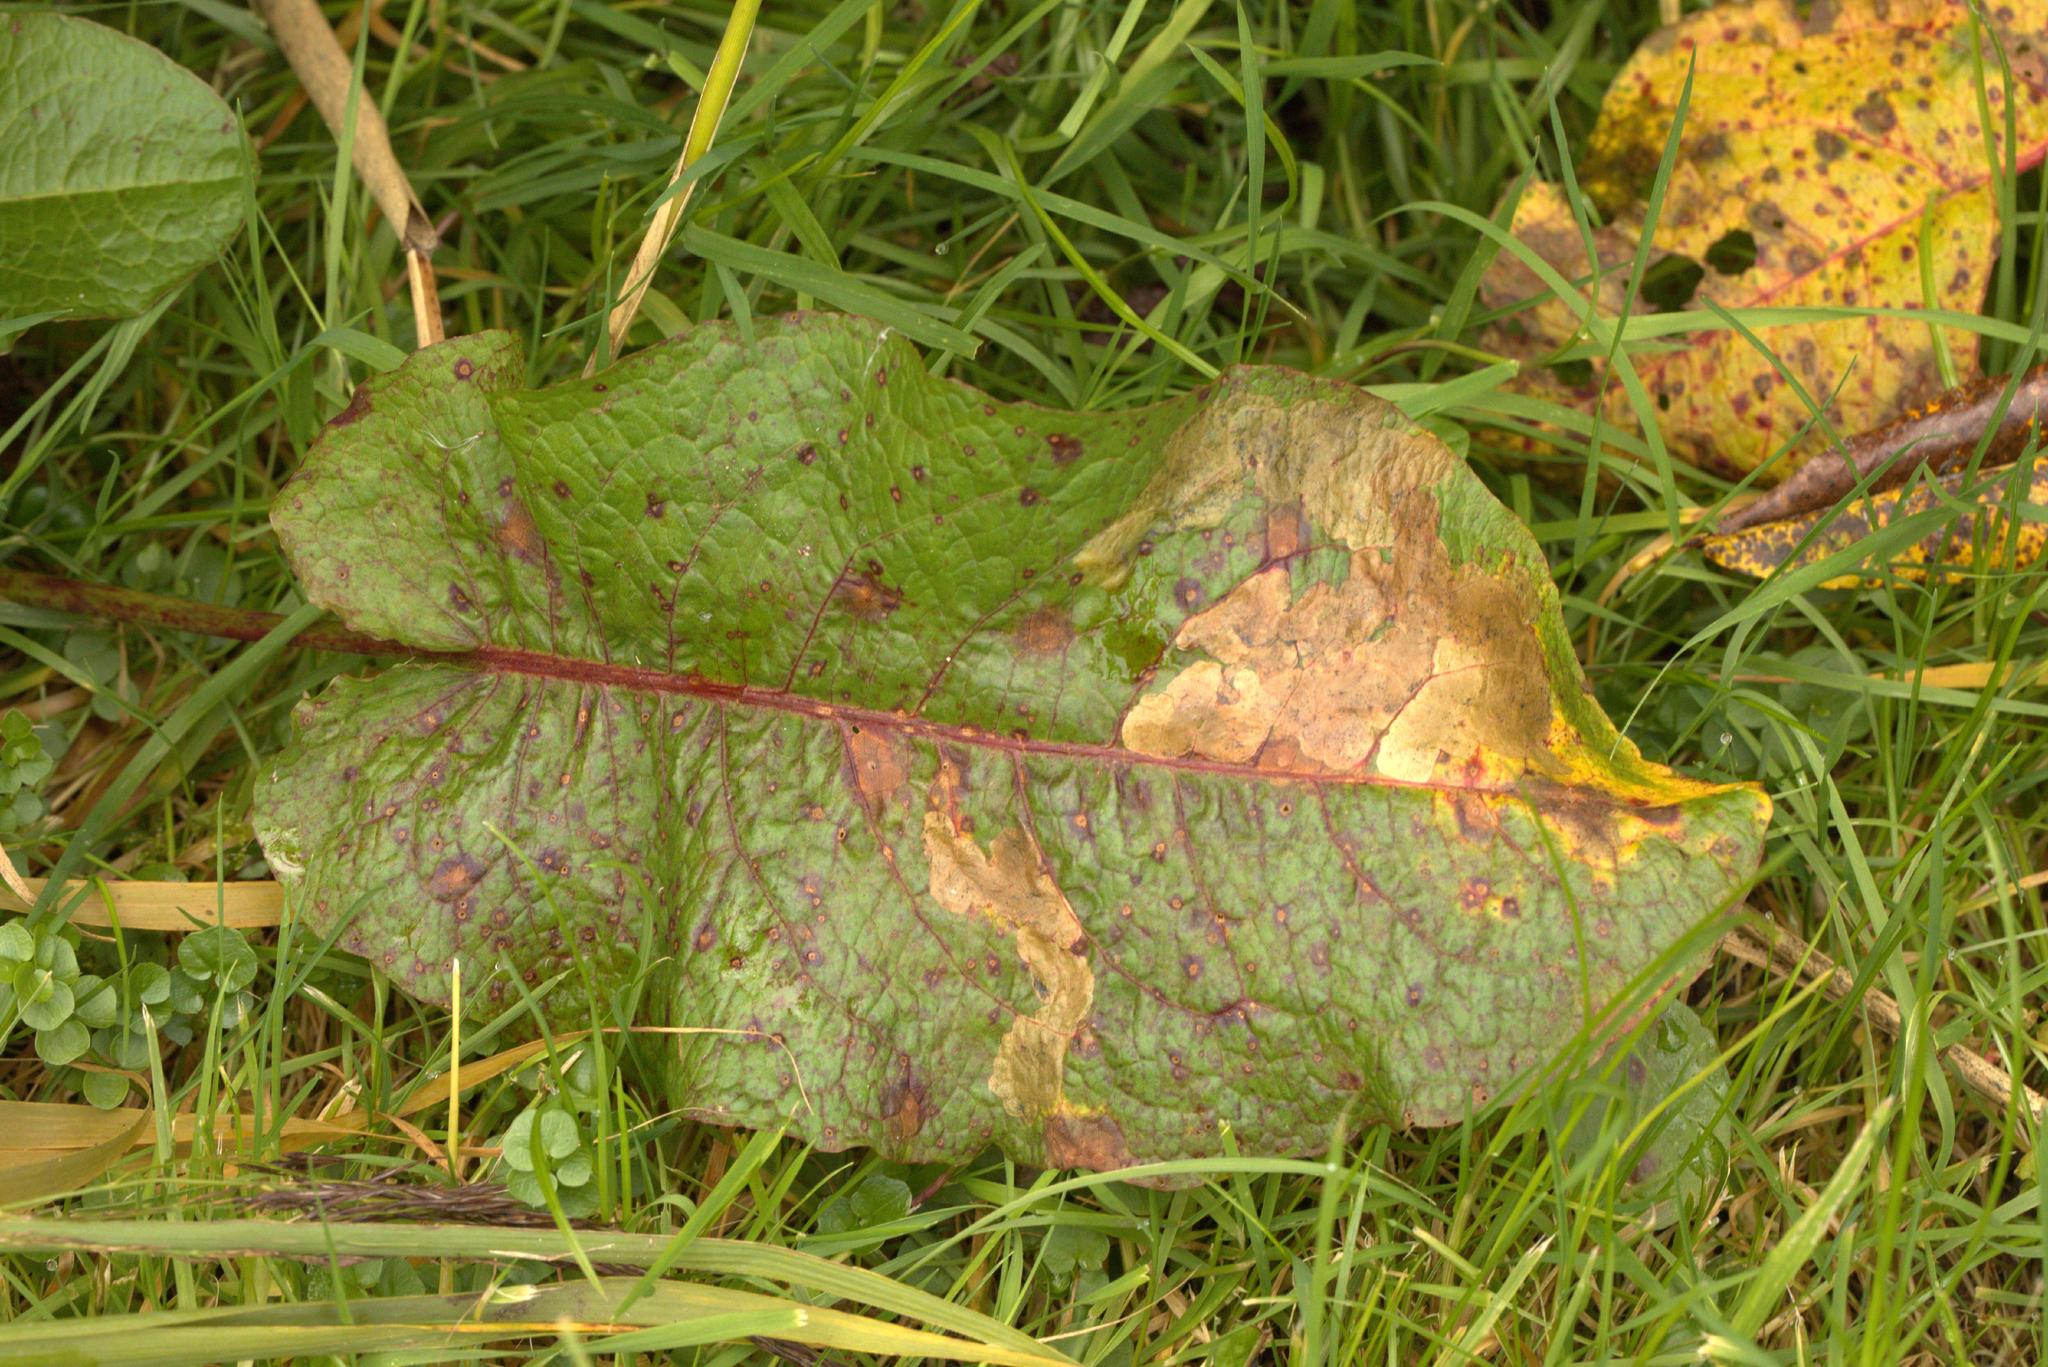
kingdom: Plantae
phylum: Tracheophyta
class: Magnoliopsida
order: Caryophyllales
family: Polygonaceae
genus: Rumex
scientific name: Rumex obtusifolius
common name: Bitter dock
